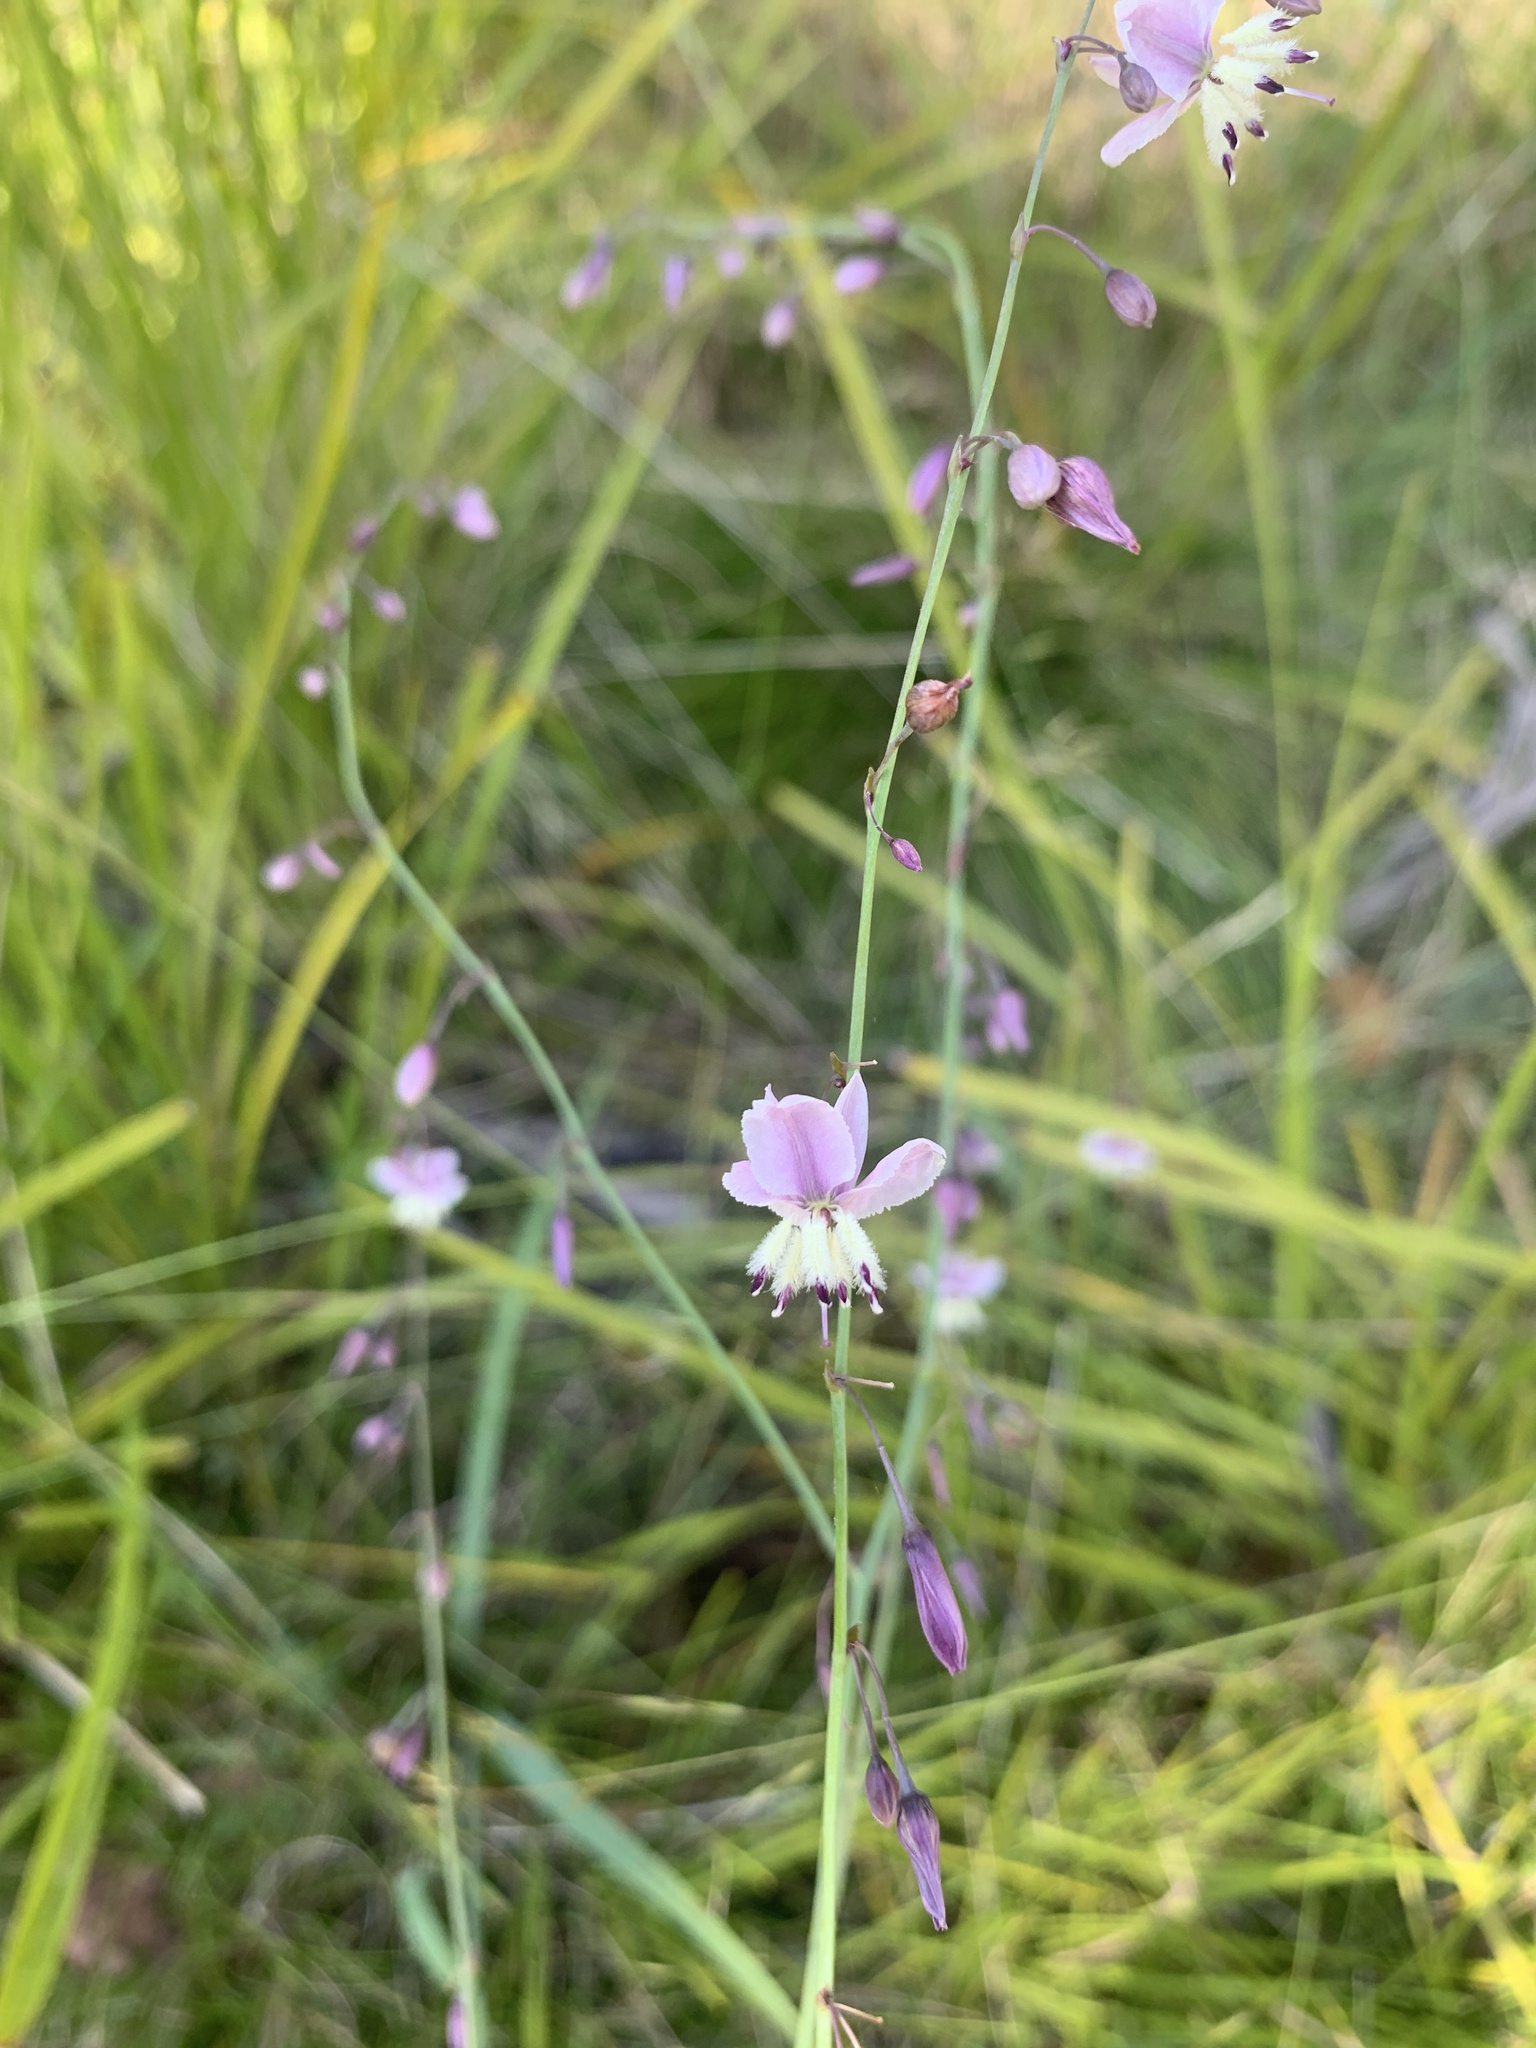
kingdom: Plantae
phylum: Tracheophyta
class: Liliopsida
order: Asparagales
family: Asparagaceae
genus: Arthropodium
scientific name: Arthropodium milleflorum
